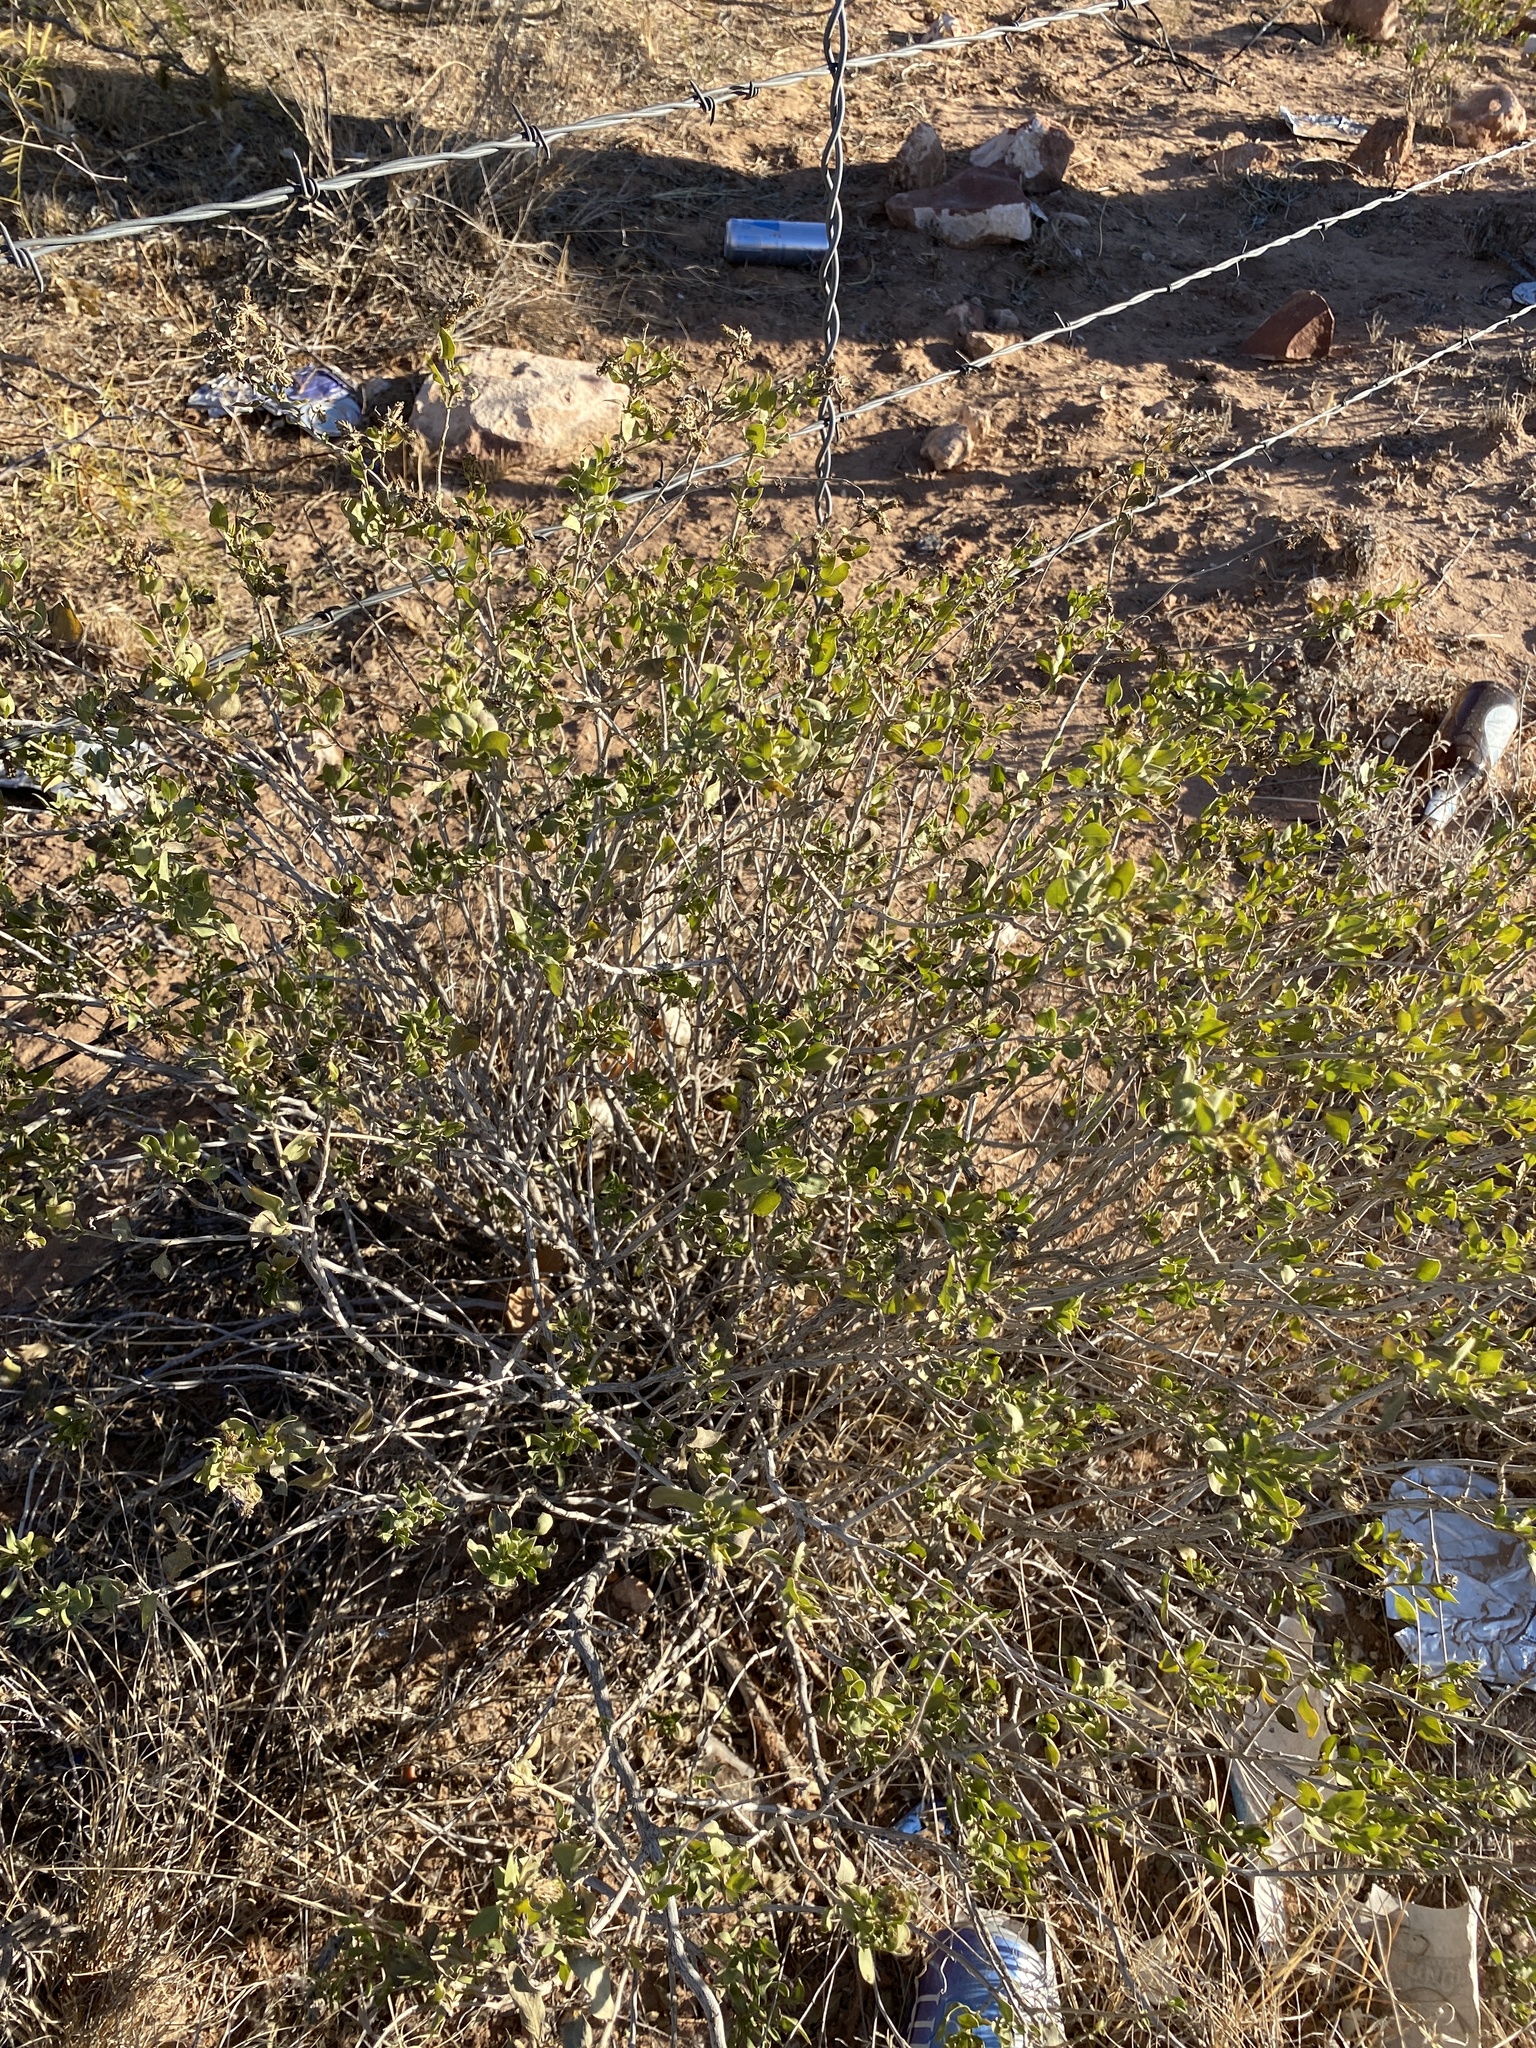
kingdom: Plantae
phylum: Tracheophyta
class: Magnoliopsida
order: Asterales
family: Asteraceae
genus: Flourensia
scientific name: Flourensia cernua
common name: Varnishbush
